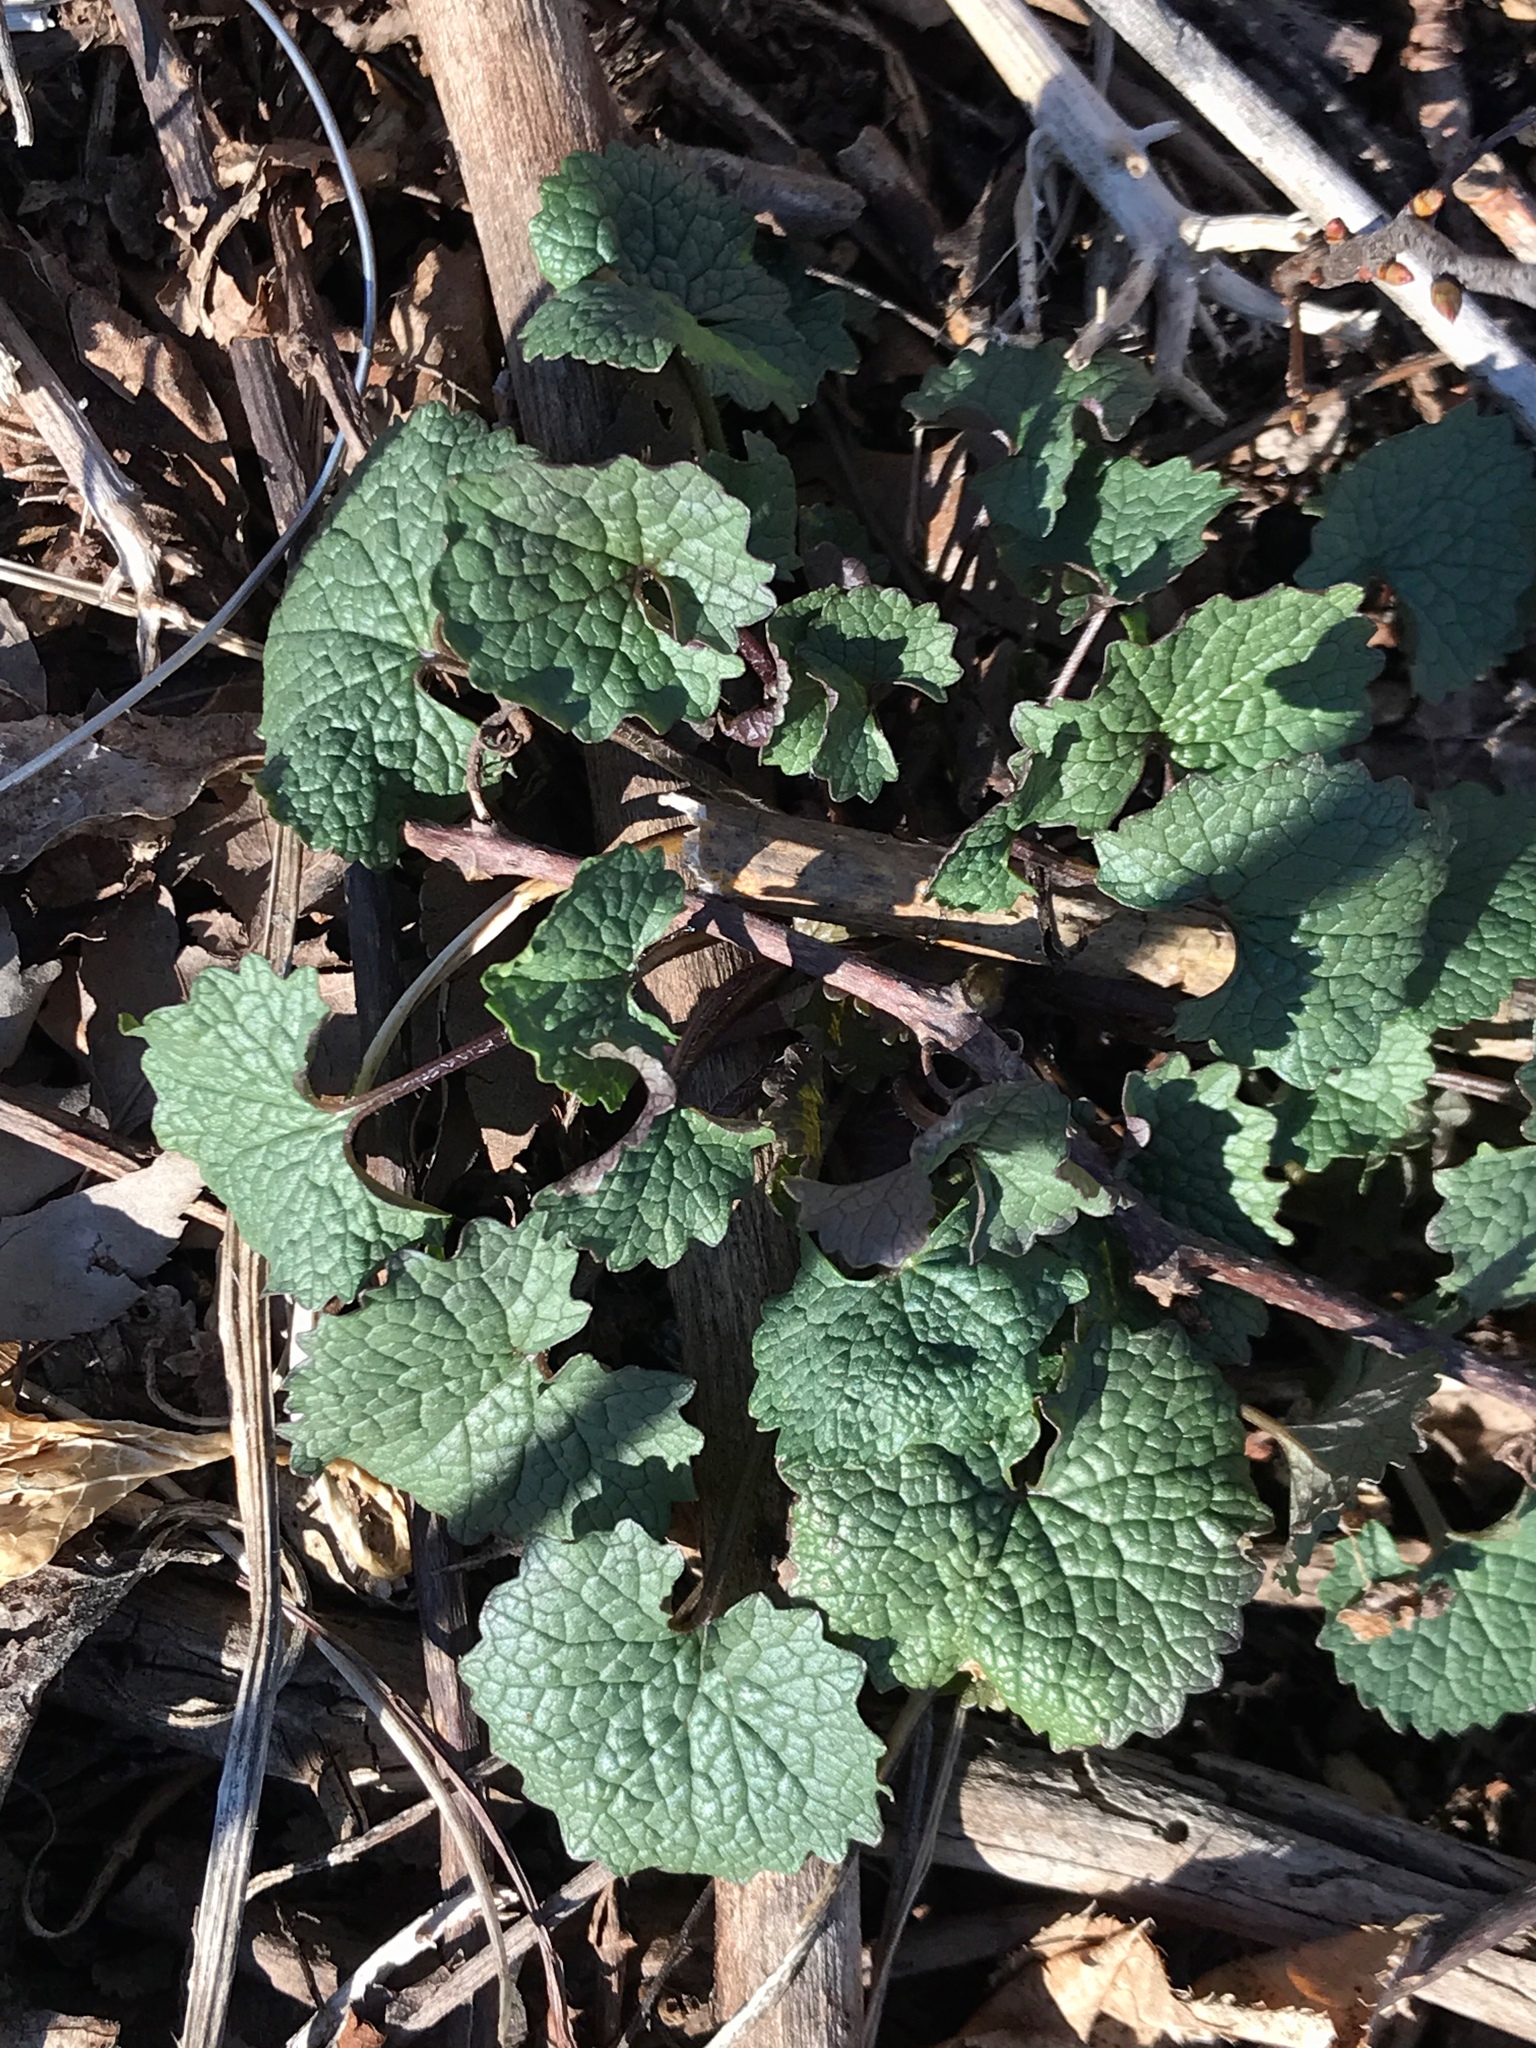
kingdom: Plantae
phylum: Tracheophyta
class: Magnoliopsida
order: Brassicales
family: Brassicaceae
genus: Alliaria
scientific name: Alliaria petiolata
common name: Garlic mustard
